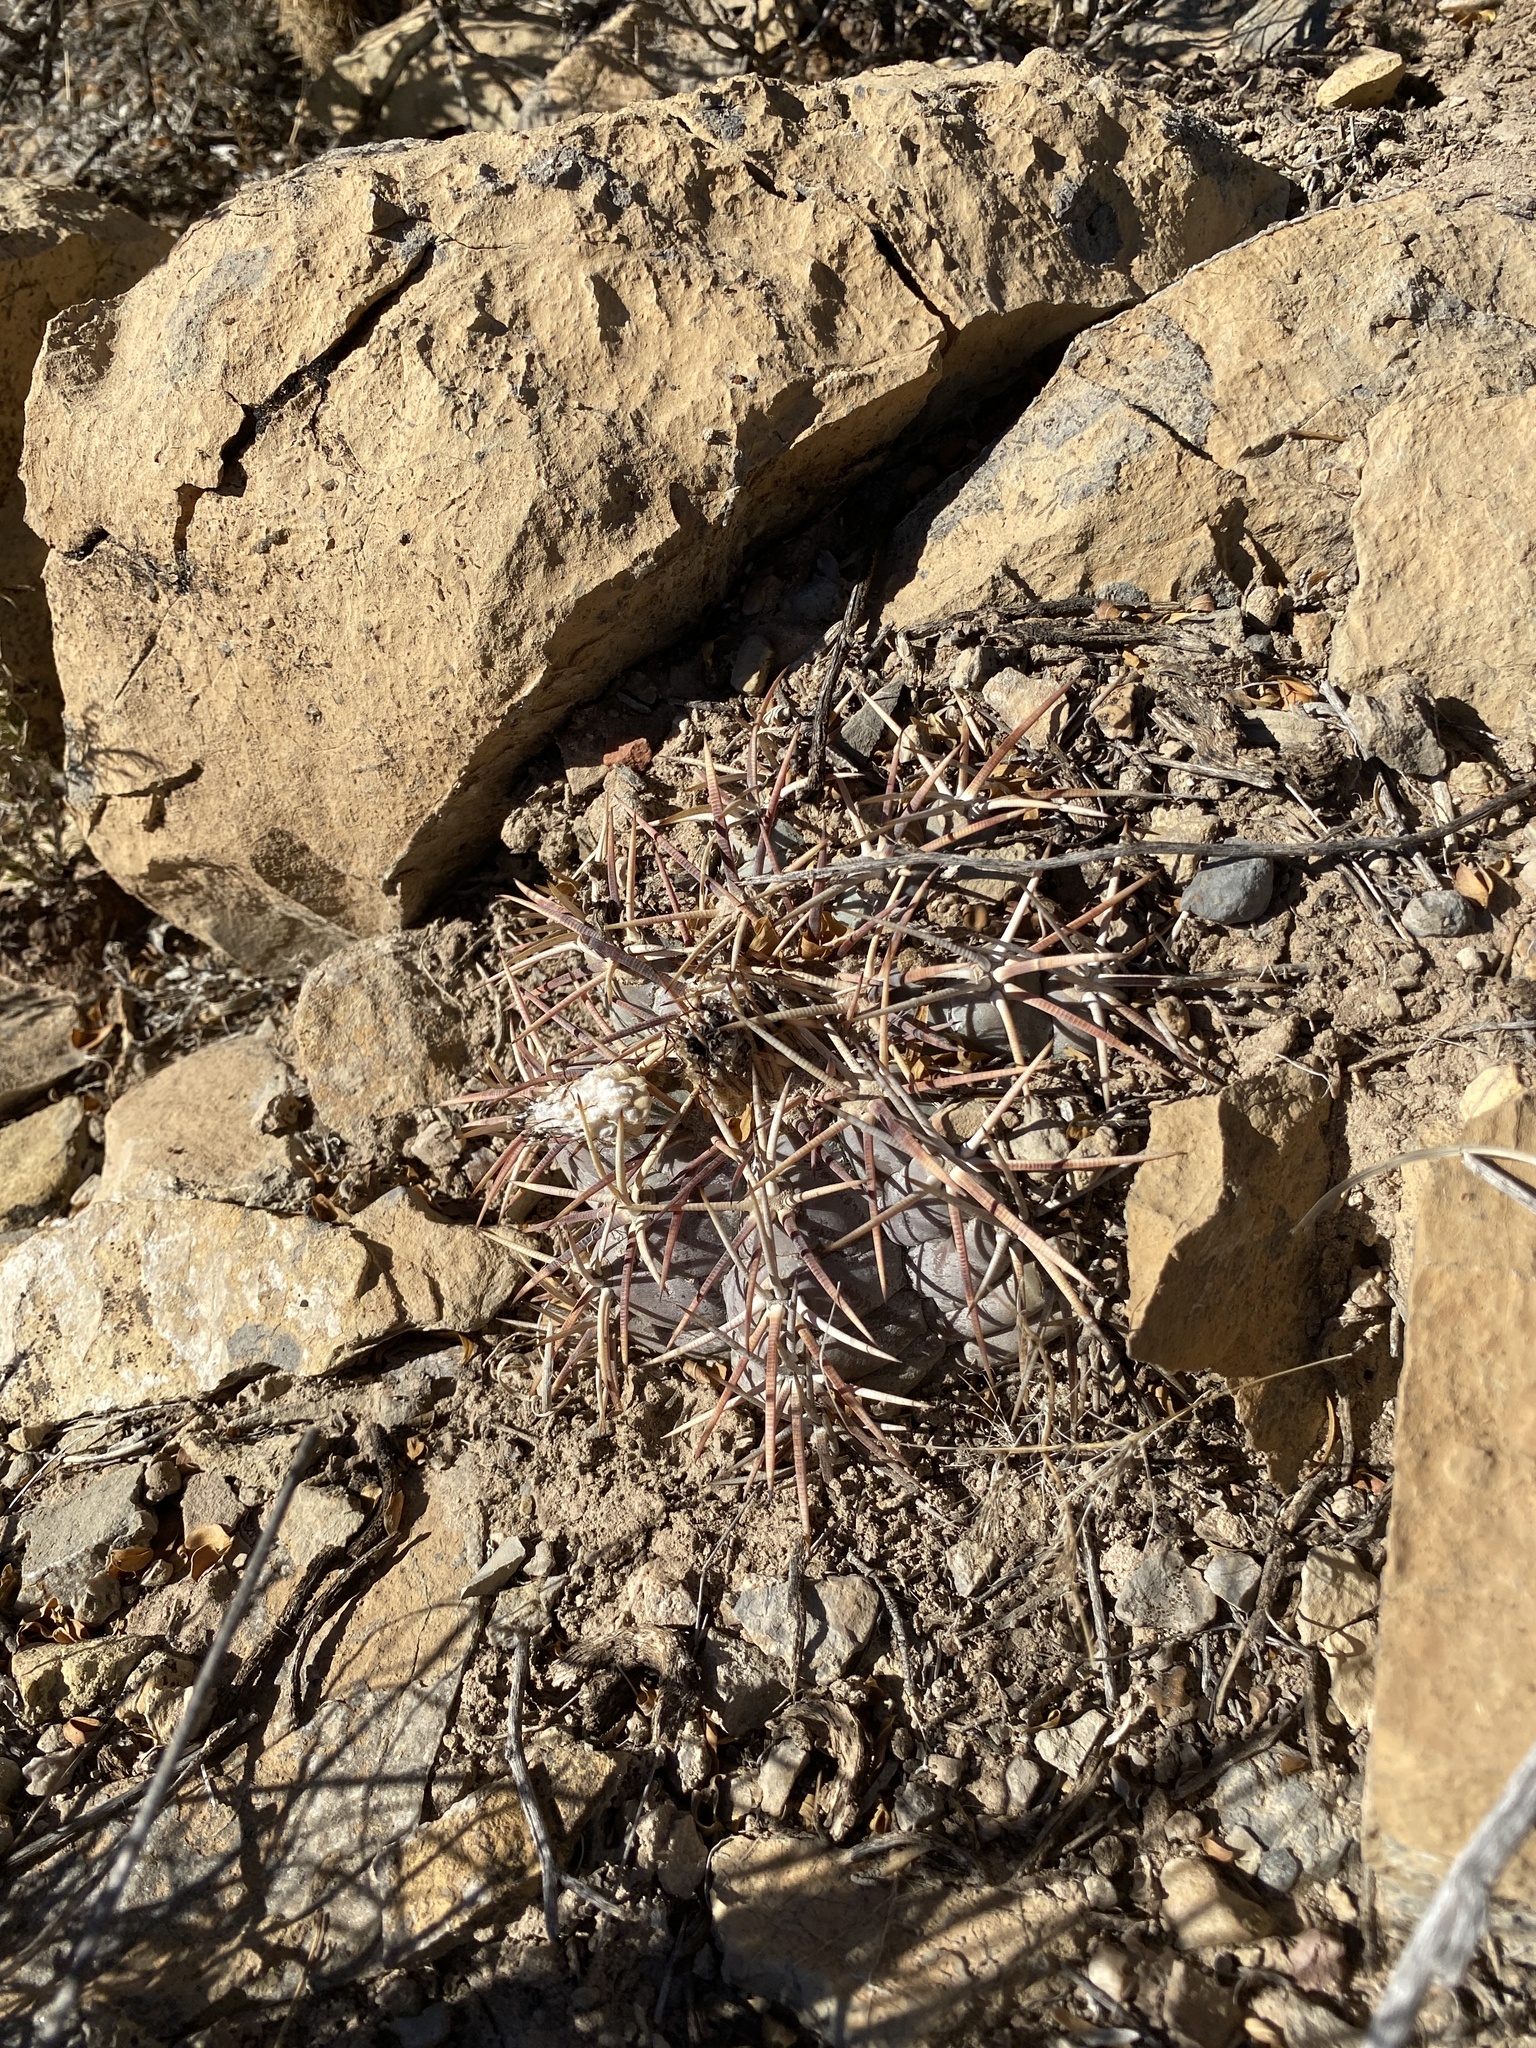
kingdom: Plantae
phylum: Tracheophyta
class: Magnoliopsida
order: Caryophyllales
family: Cactaceae
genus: Echinocactus
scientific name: Echinocactus horizonthalonius
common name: Devilshead
